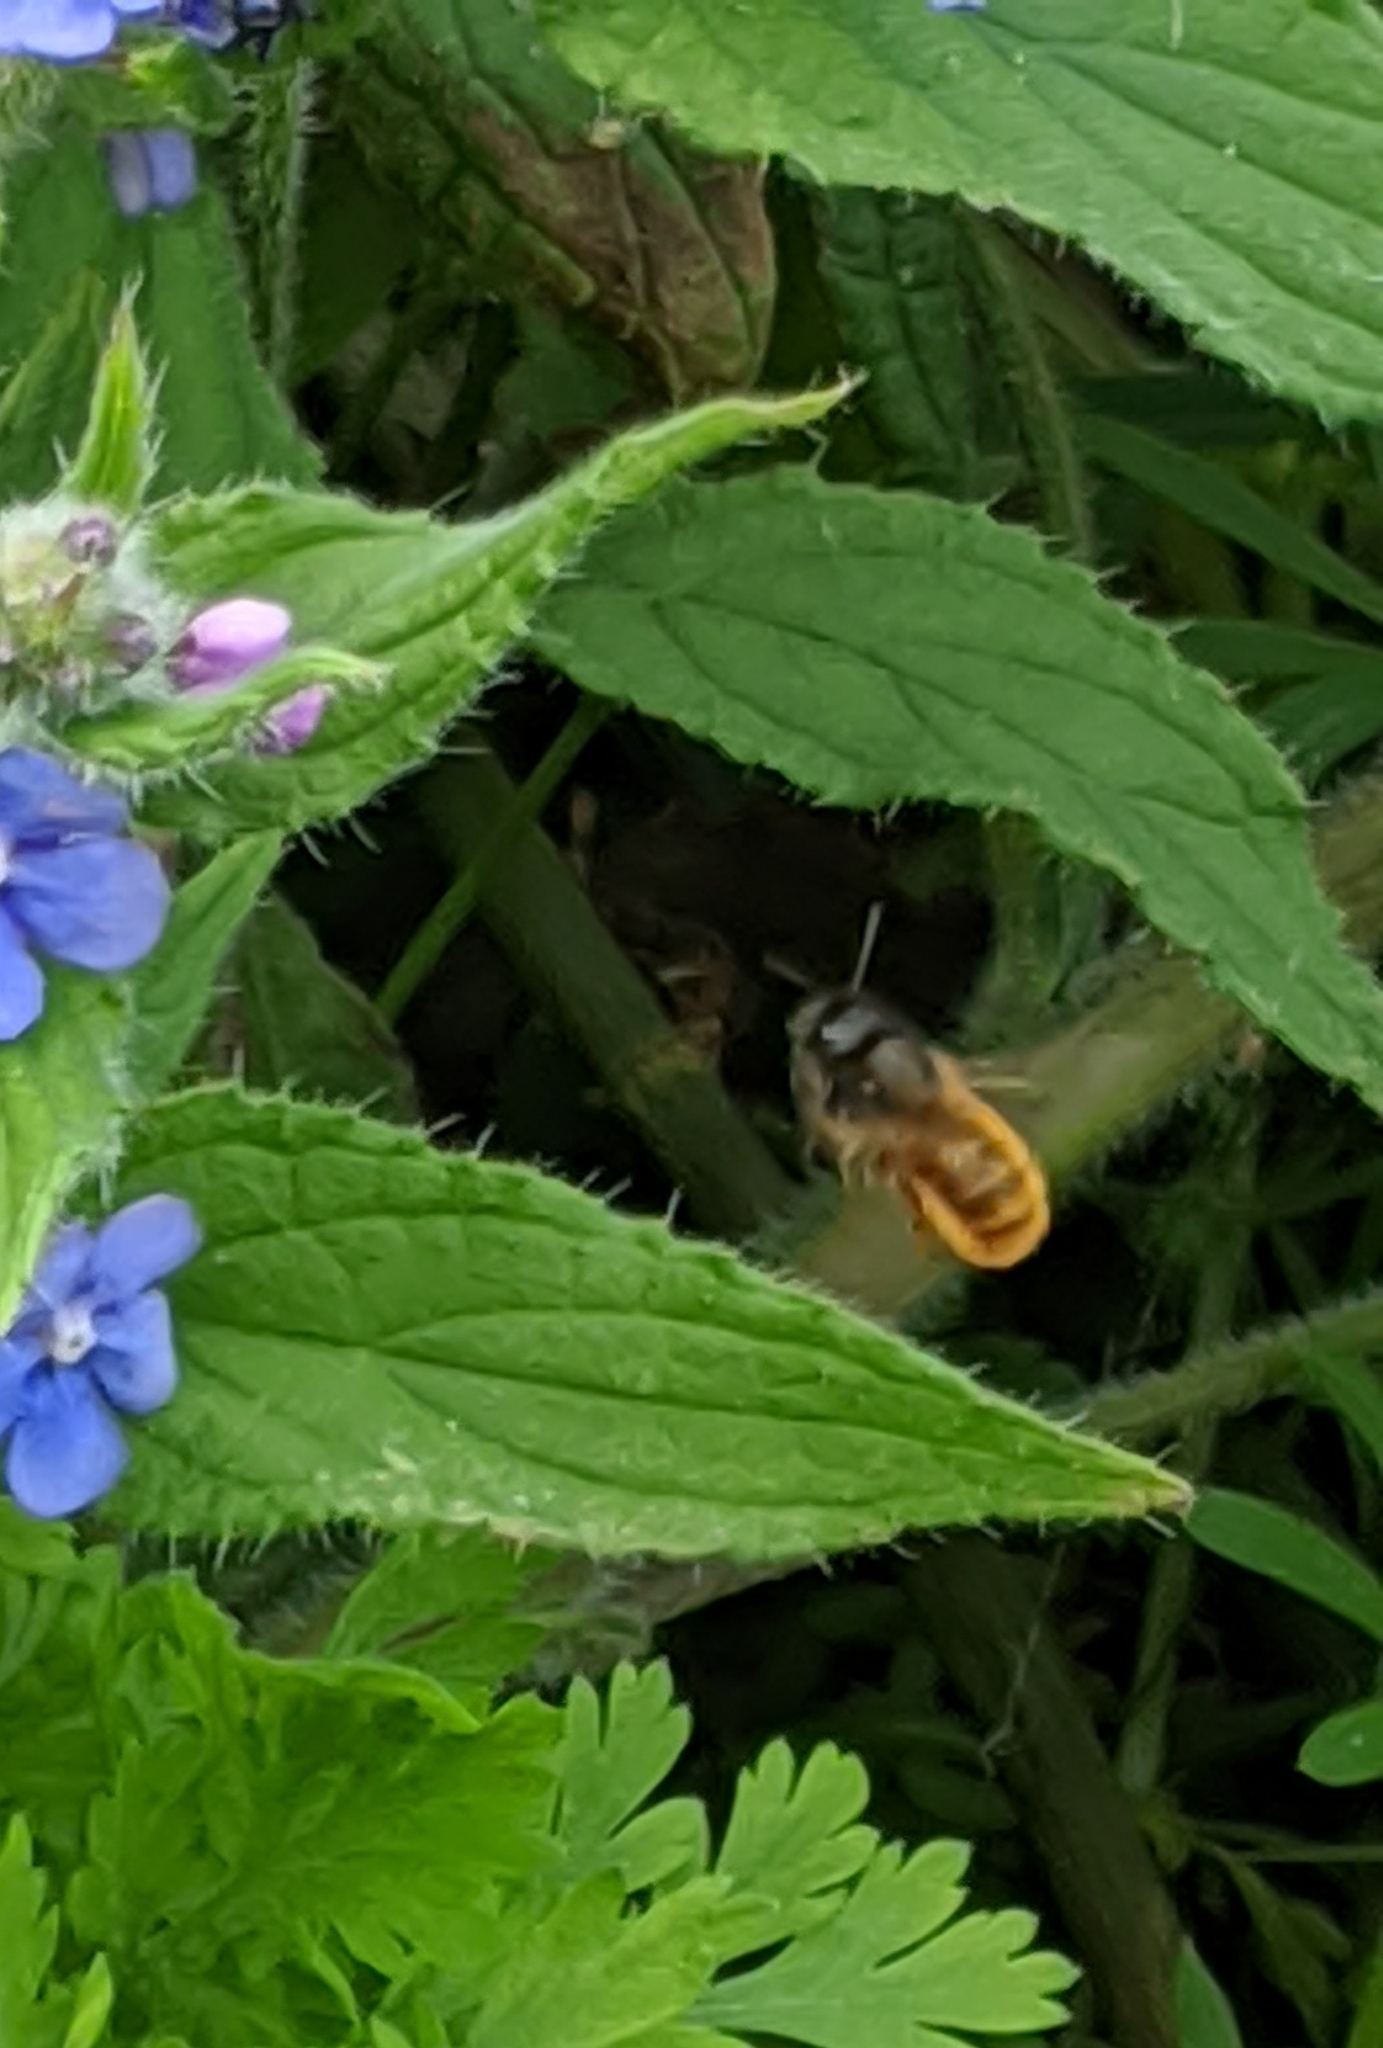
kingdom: Animalia
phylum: Arthropoda
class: Insecta
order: Hymenoptera
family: Megachilidae
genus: Osmia
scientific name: Osmia bicornis
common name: Red mason bee
